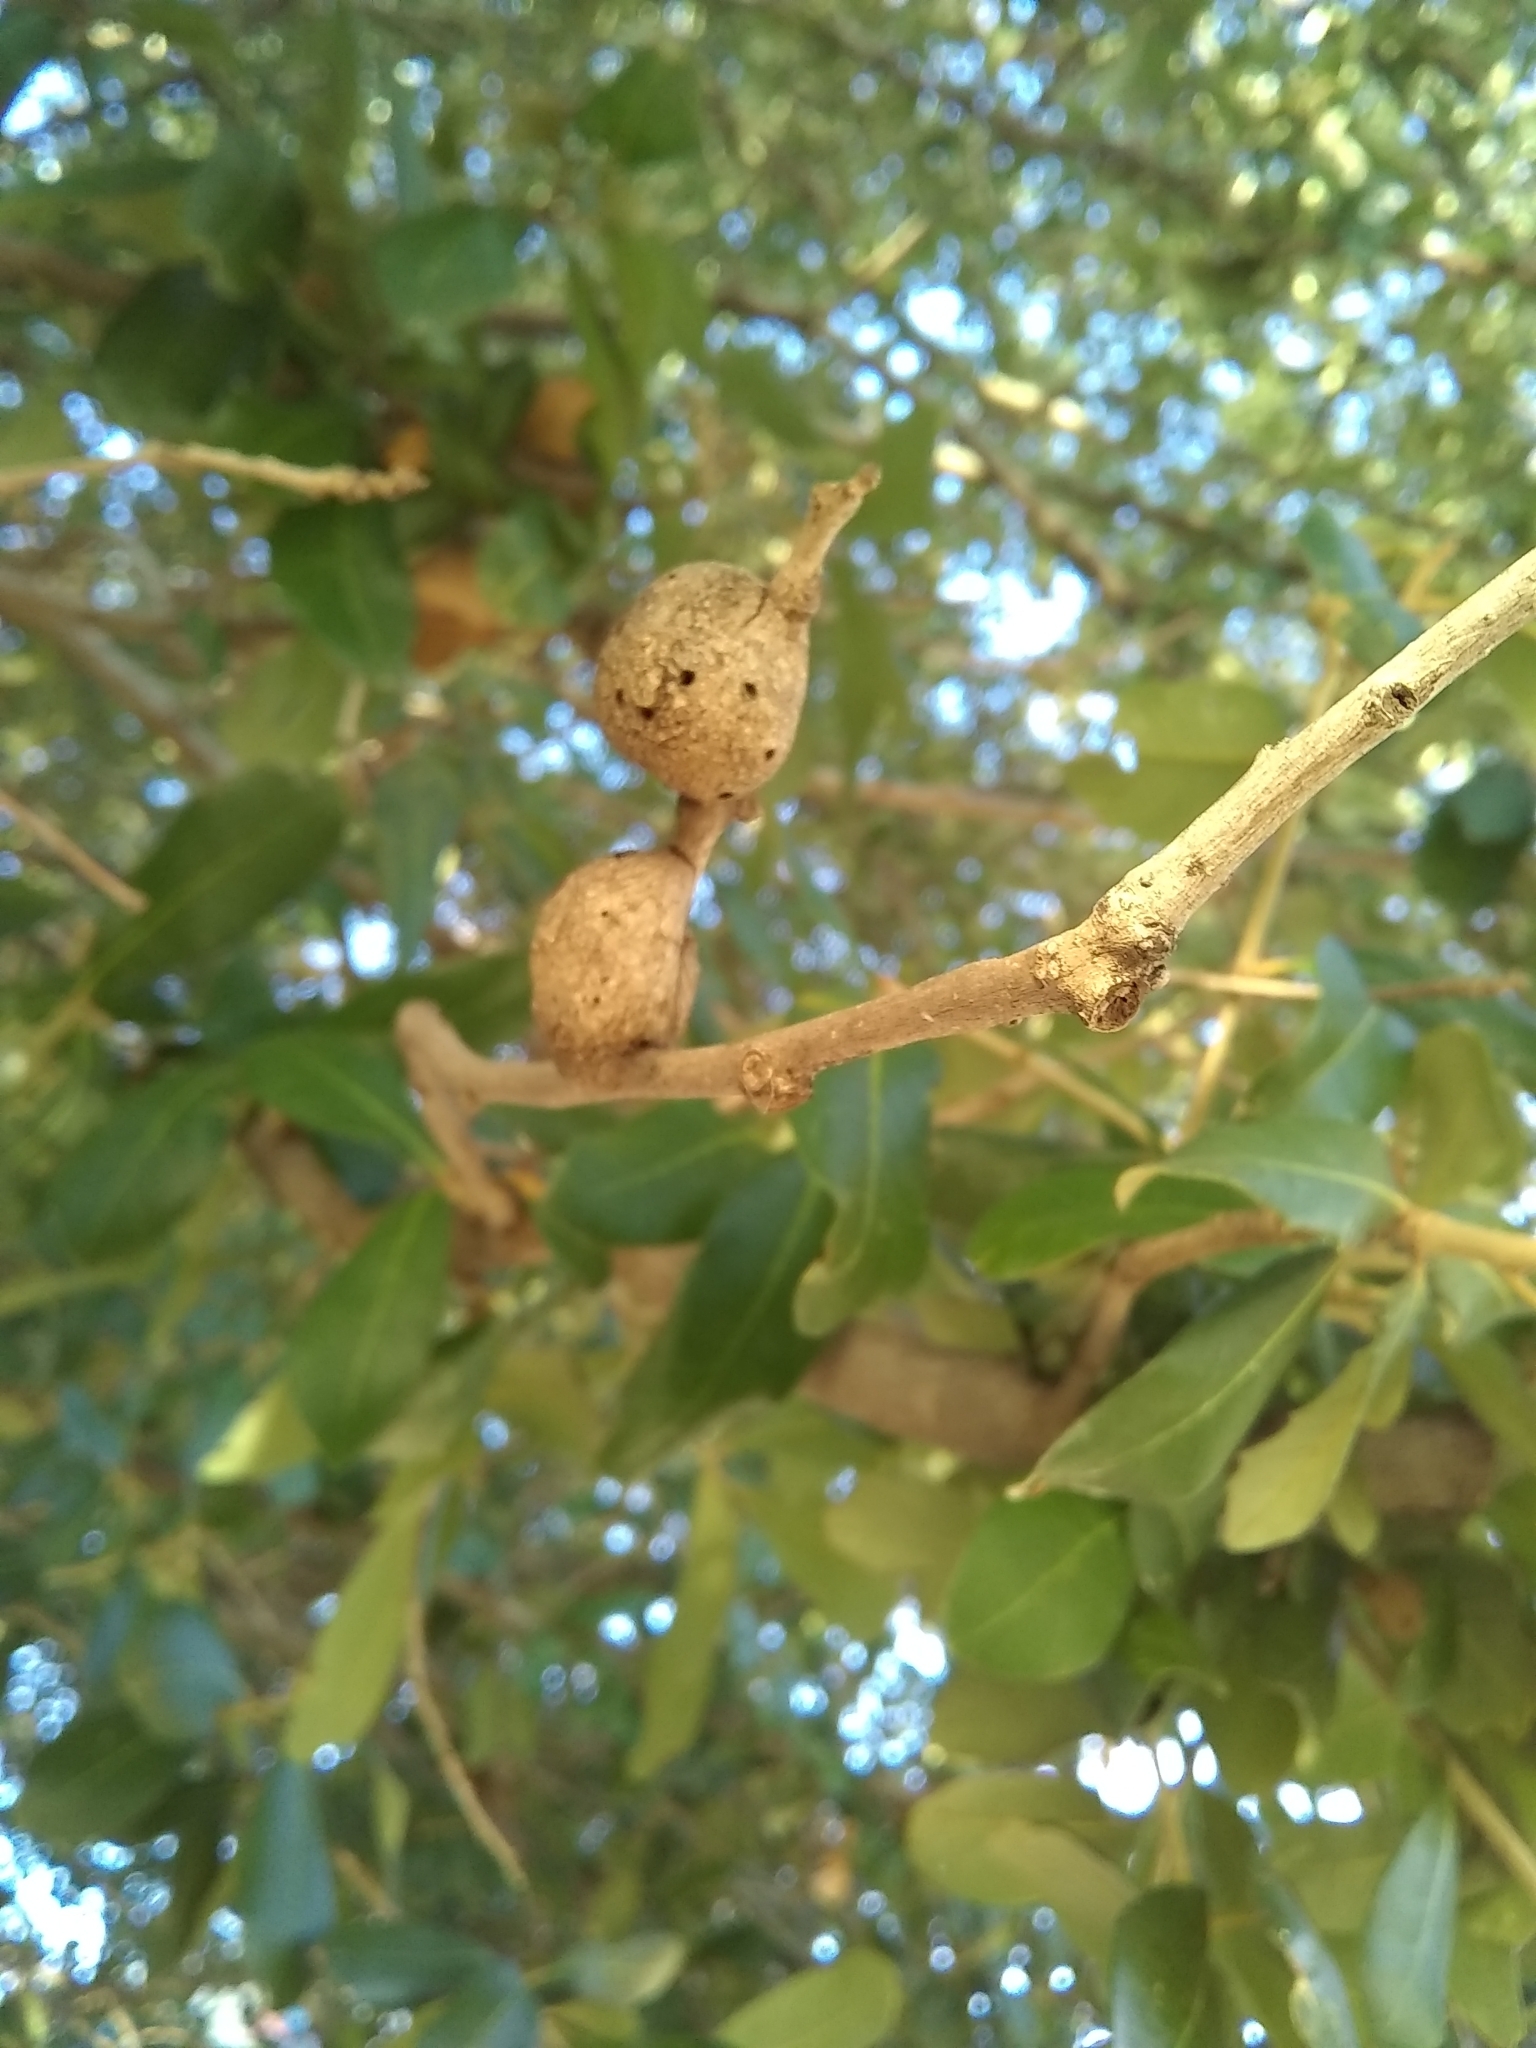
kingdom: Animalia
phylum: Arthropoda
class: Insecta
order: Hymenoptera
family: Cynipidae
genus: Callirhytis
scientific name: Callirhytis
